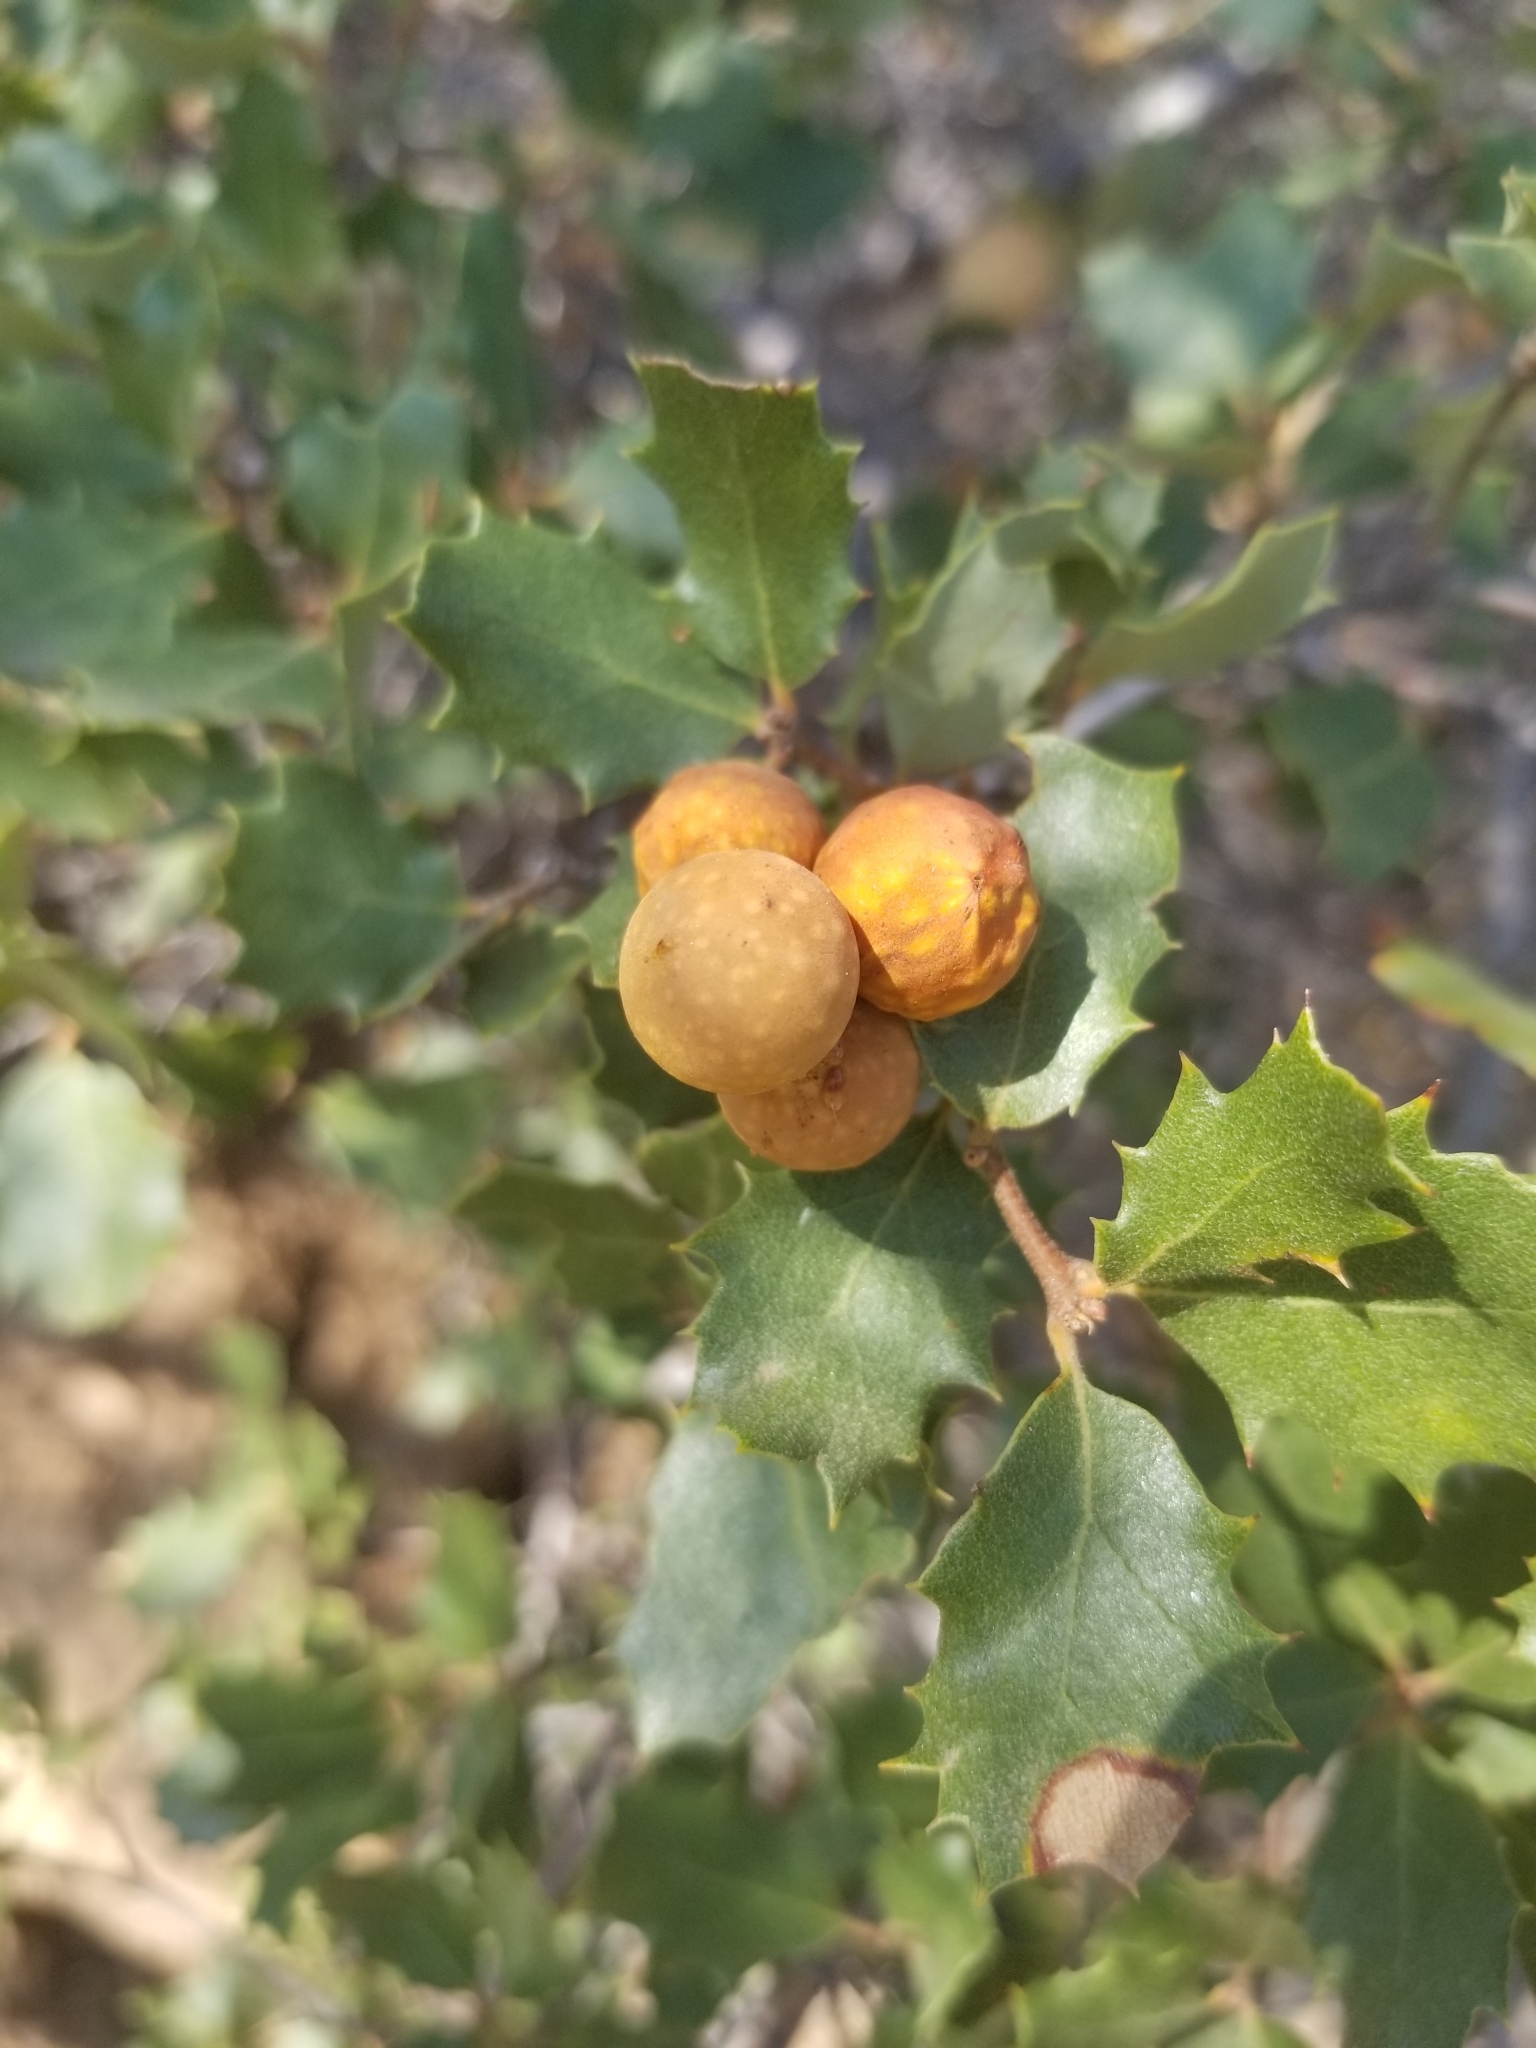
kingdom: Plantae
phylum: Tracheophyta
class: Magnoliopsida
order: Fagales
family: Fagaceae
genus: Quercus
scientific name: Quercus cornelius-mulleri
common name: Muller oak
